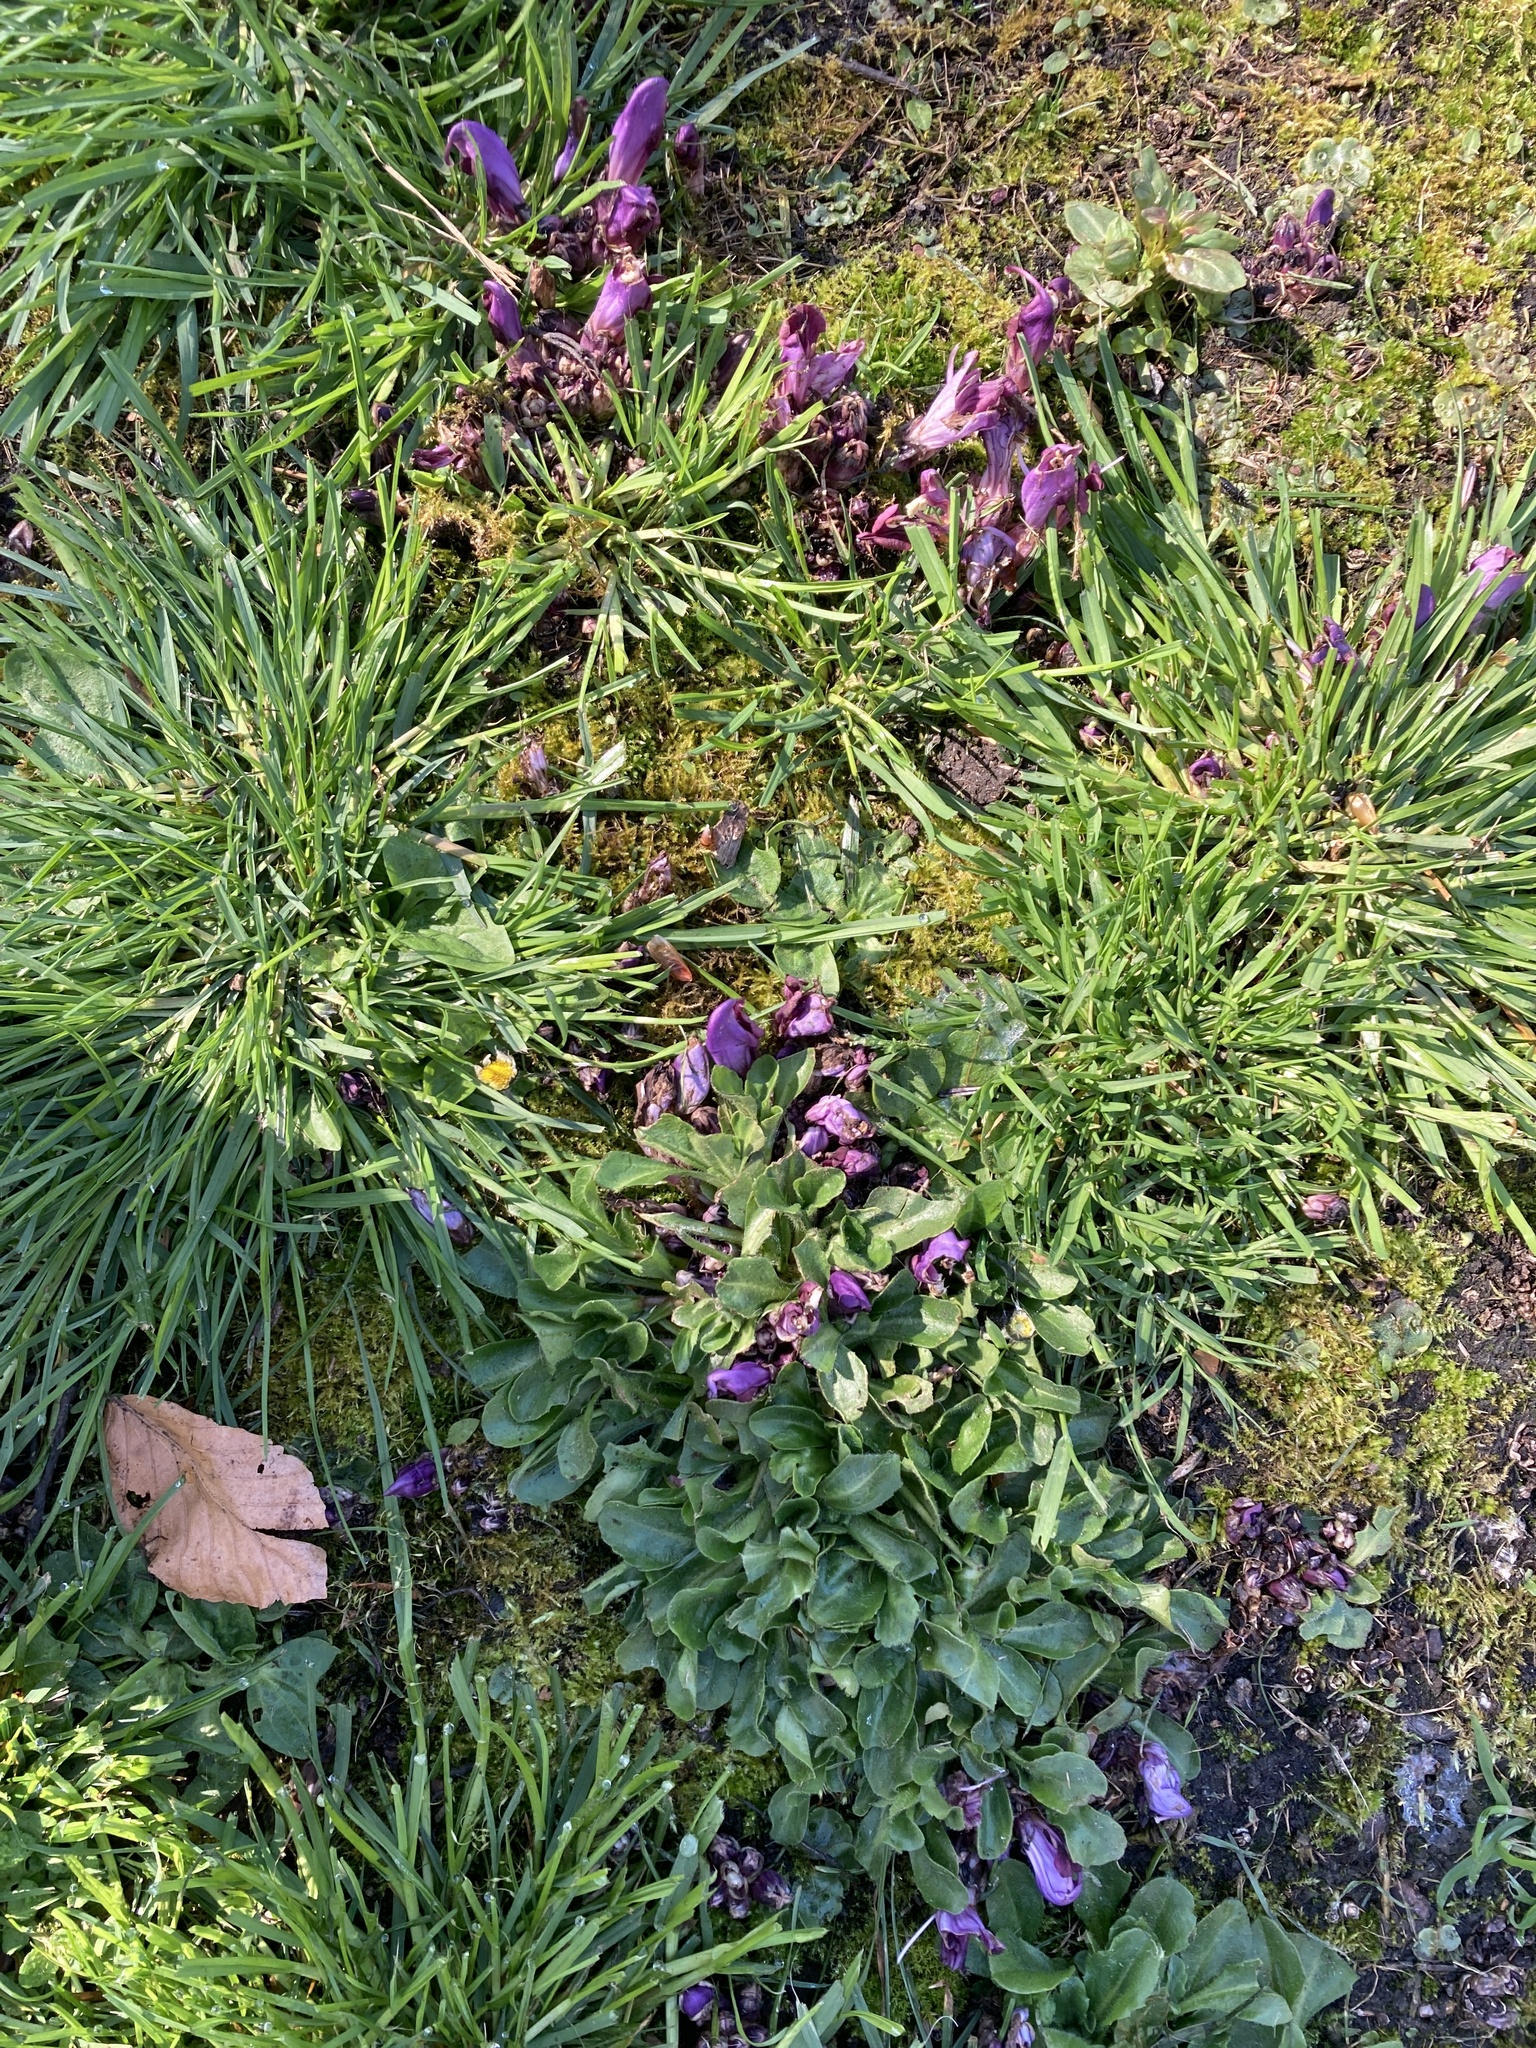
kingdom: Plantae
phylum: Tracheophyta
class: Magnoliopsida
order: Lamiales
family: Orobanchaceae
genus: Lathraea
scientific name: Lathraea clandestina
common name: Purple toothwort
